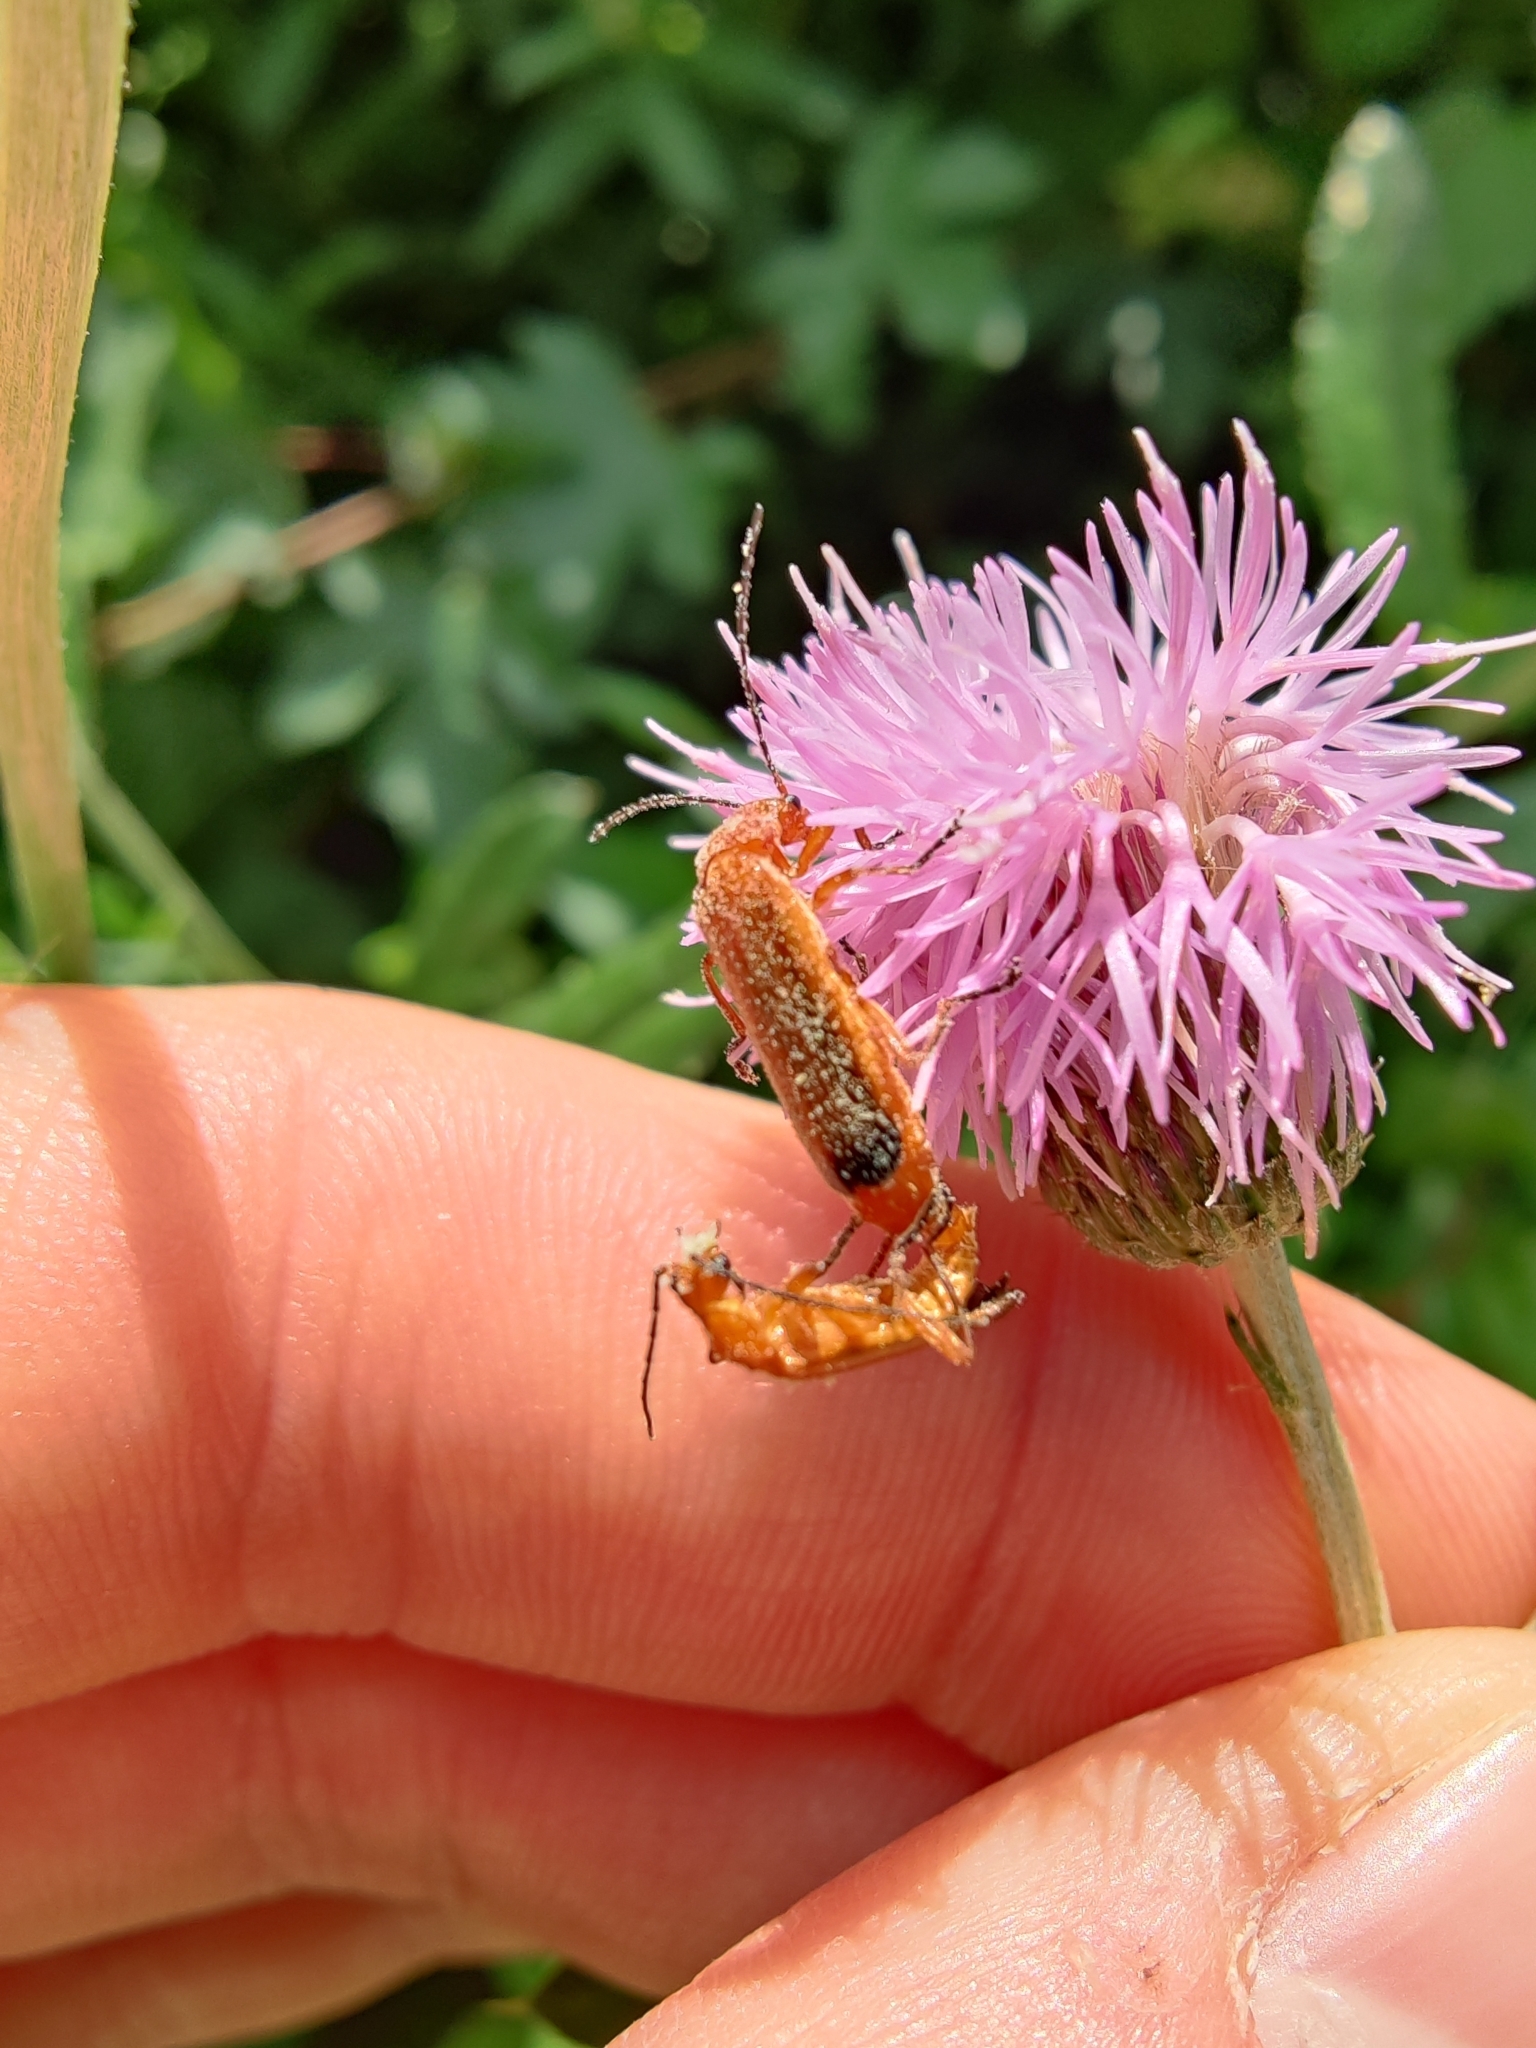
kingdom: Animalia
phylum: Arthropoda
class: Insecta
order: Coleoptera
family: Cantharidae
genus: Rhagonycha
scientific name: Rhagonycha fulva
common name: Common red soldier beetle
